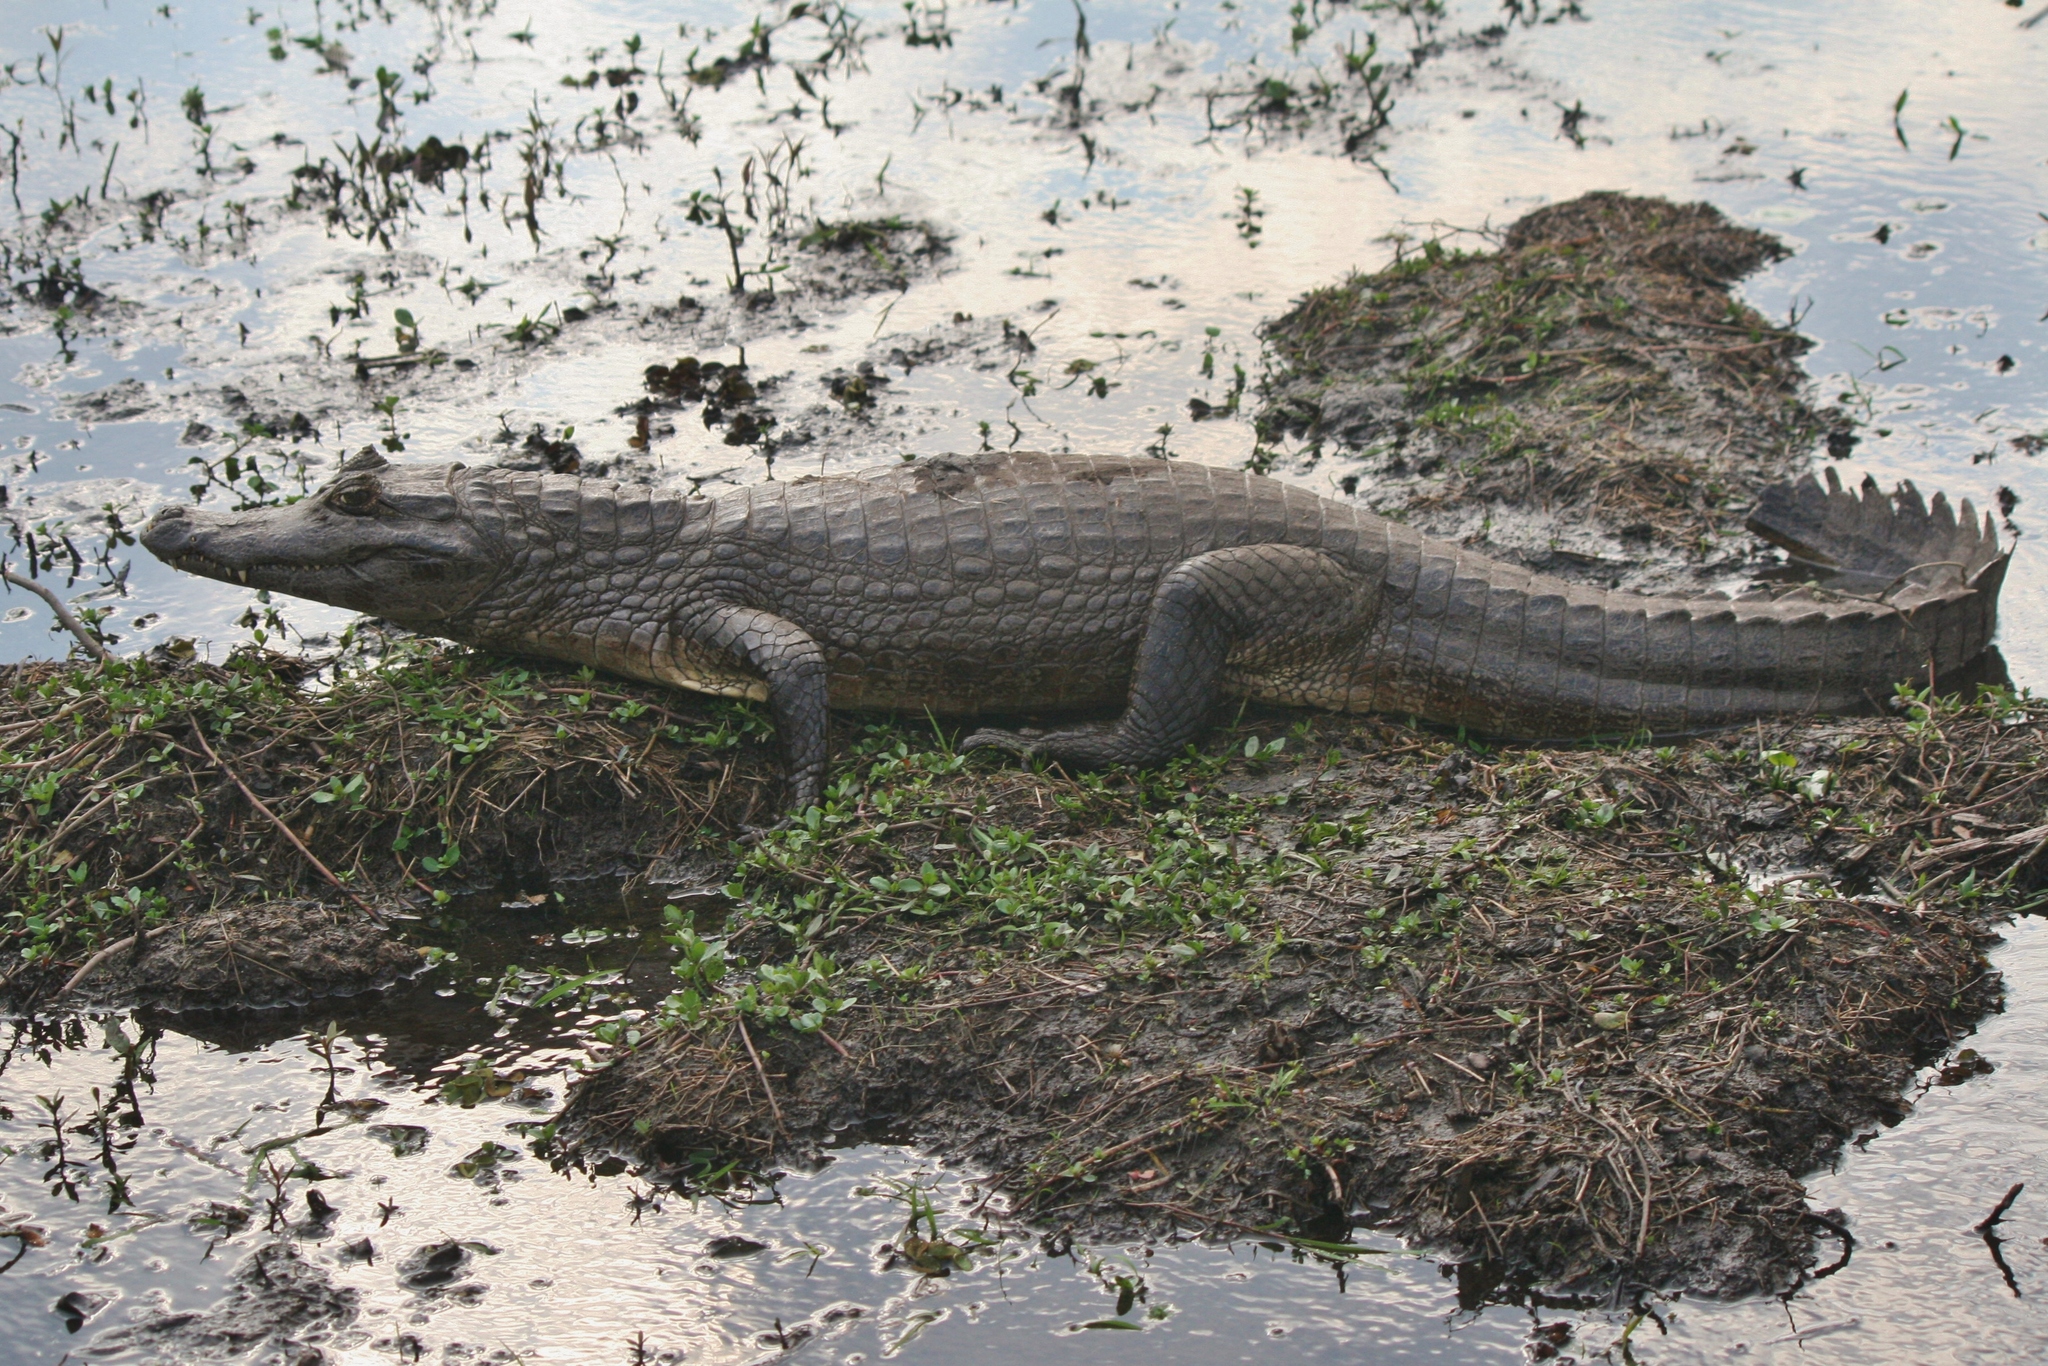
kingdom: Animalia
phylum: Chordata
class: Crocodylia
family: Alligatoridae
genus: Caiman
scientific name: Caiman yacare
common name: Yacare caiman
